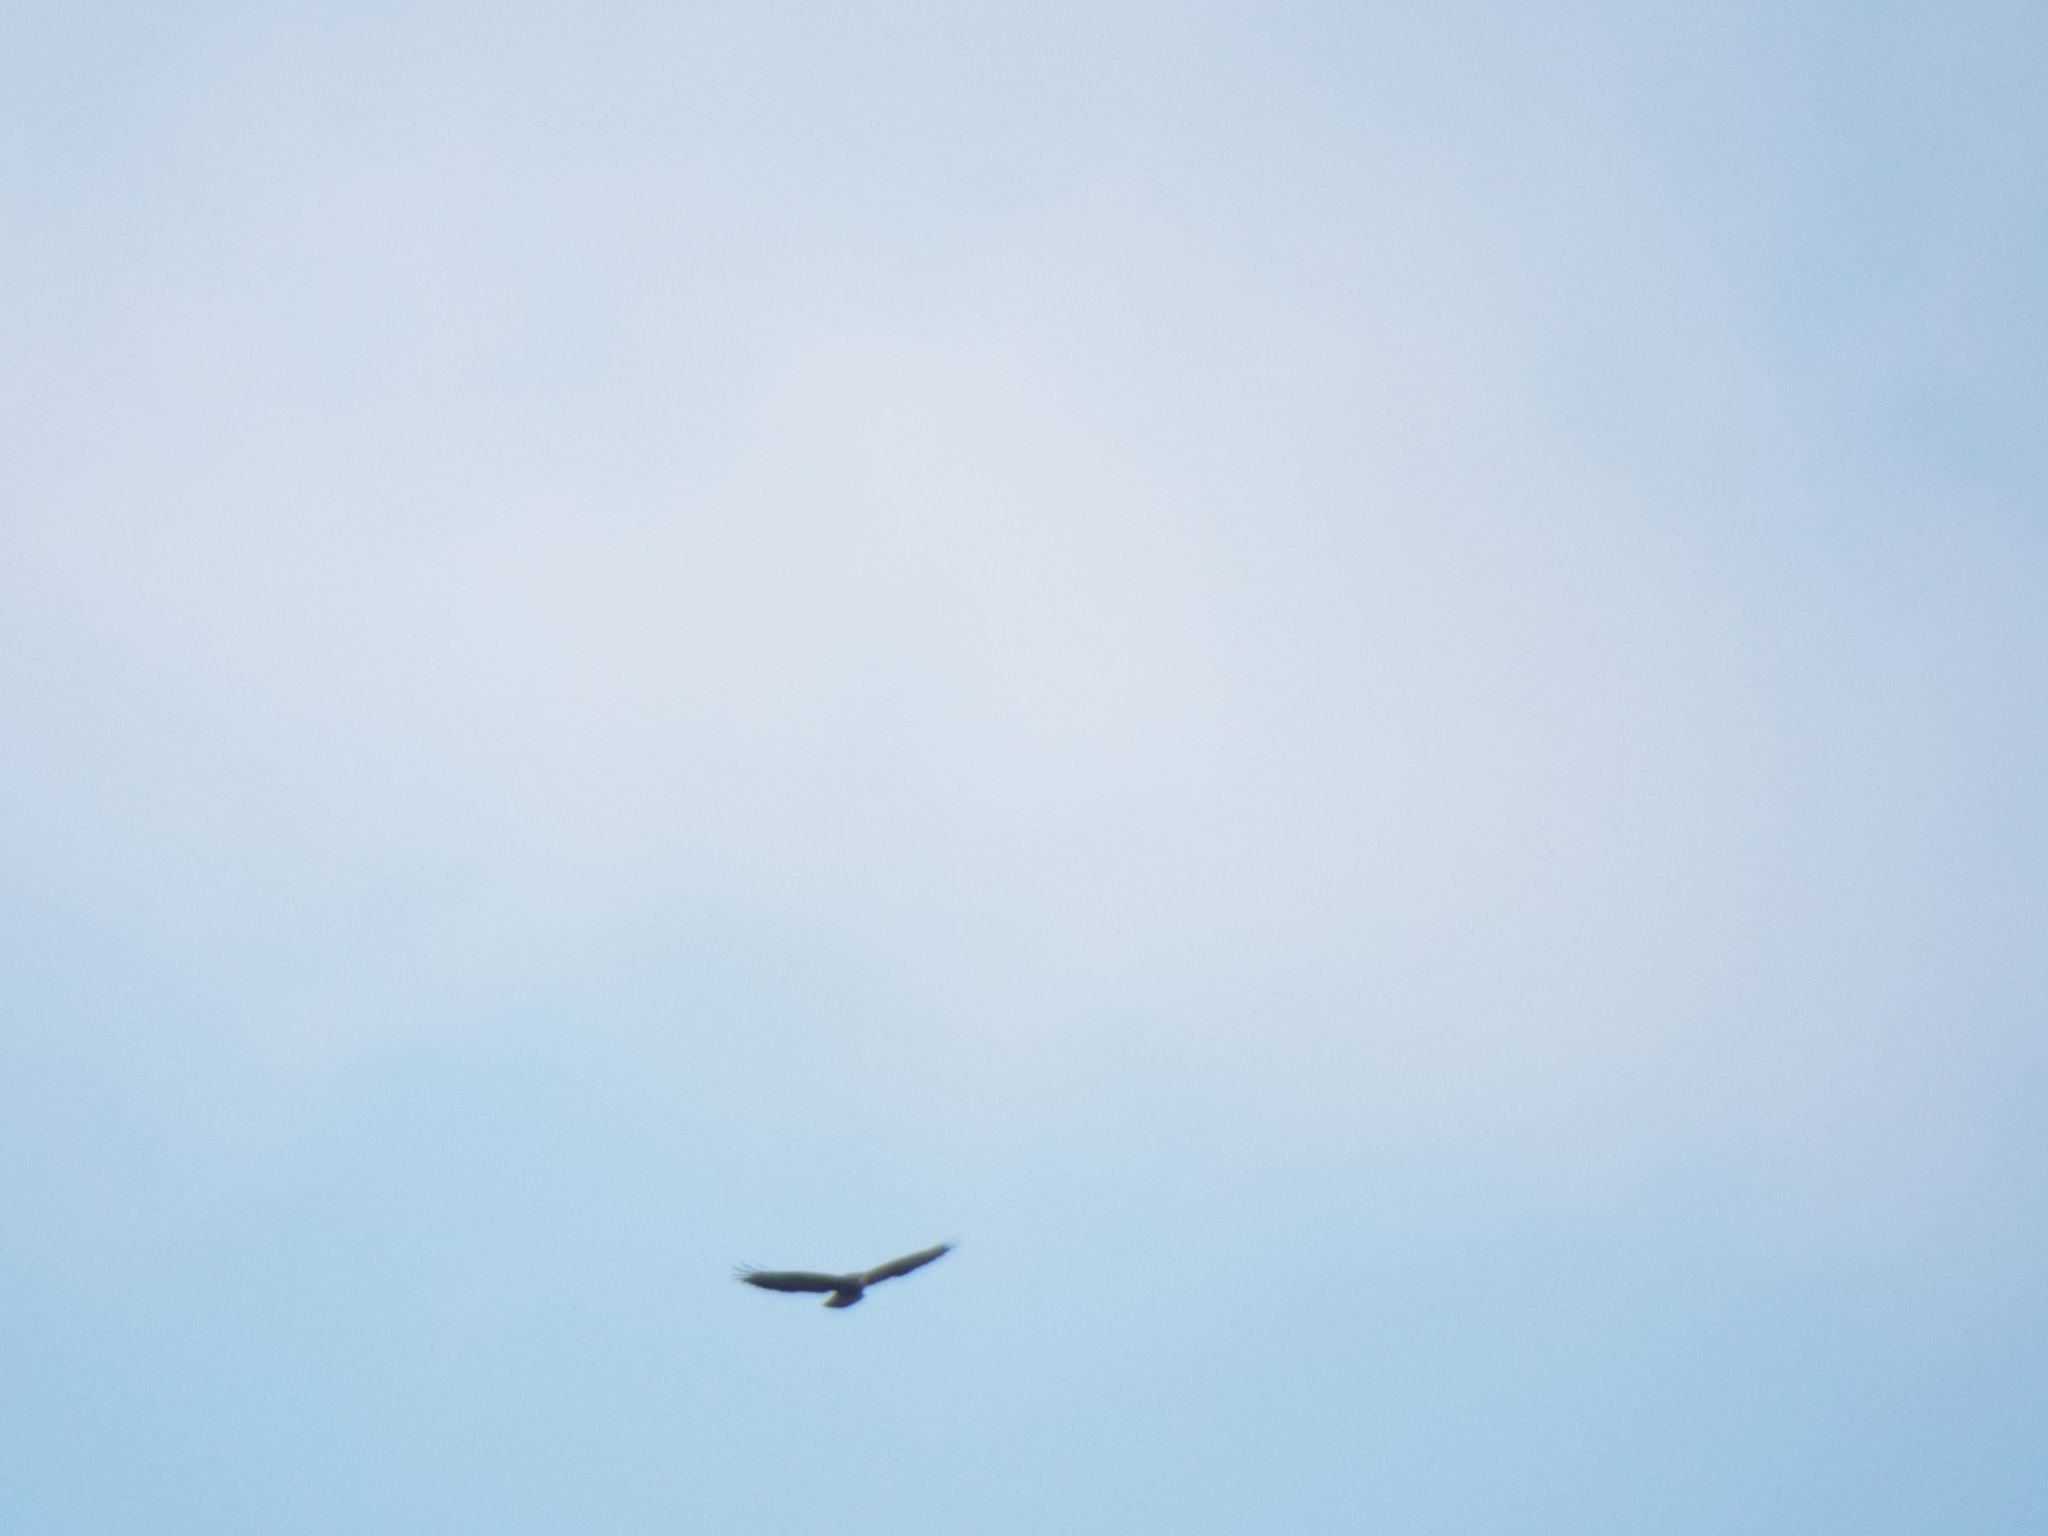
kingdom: Animalia
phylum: Chordata
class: Aves
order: Accipitriformes
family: Accipitridae
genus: Buteo
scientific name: Buteo buteo
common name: Common buzzard
